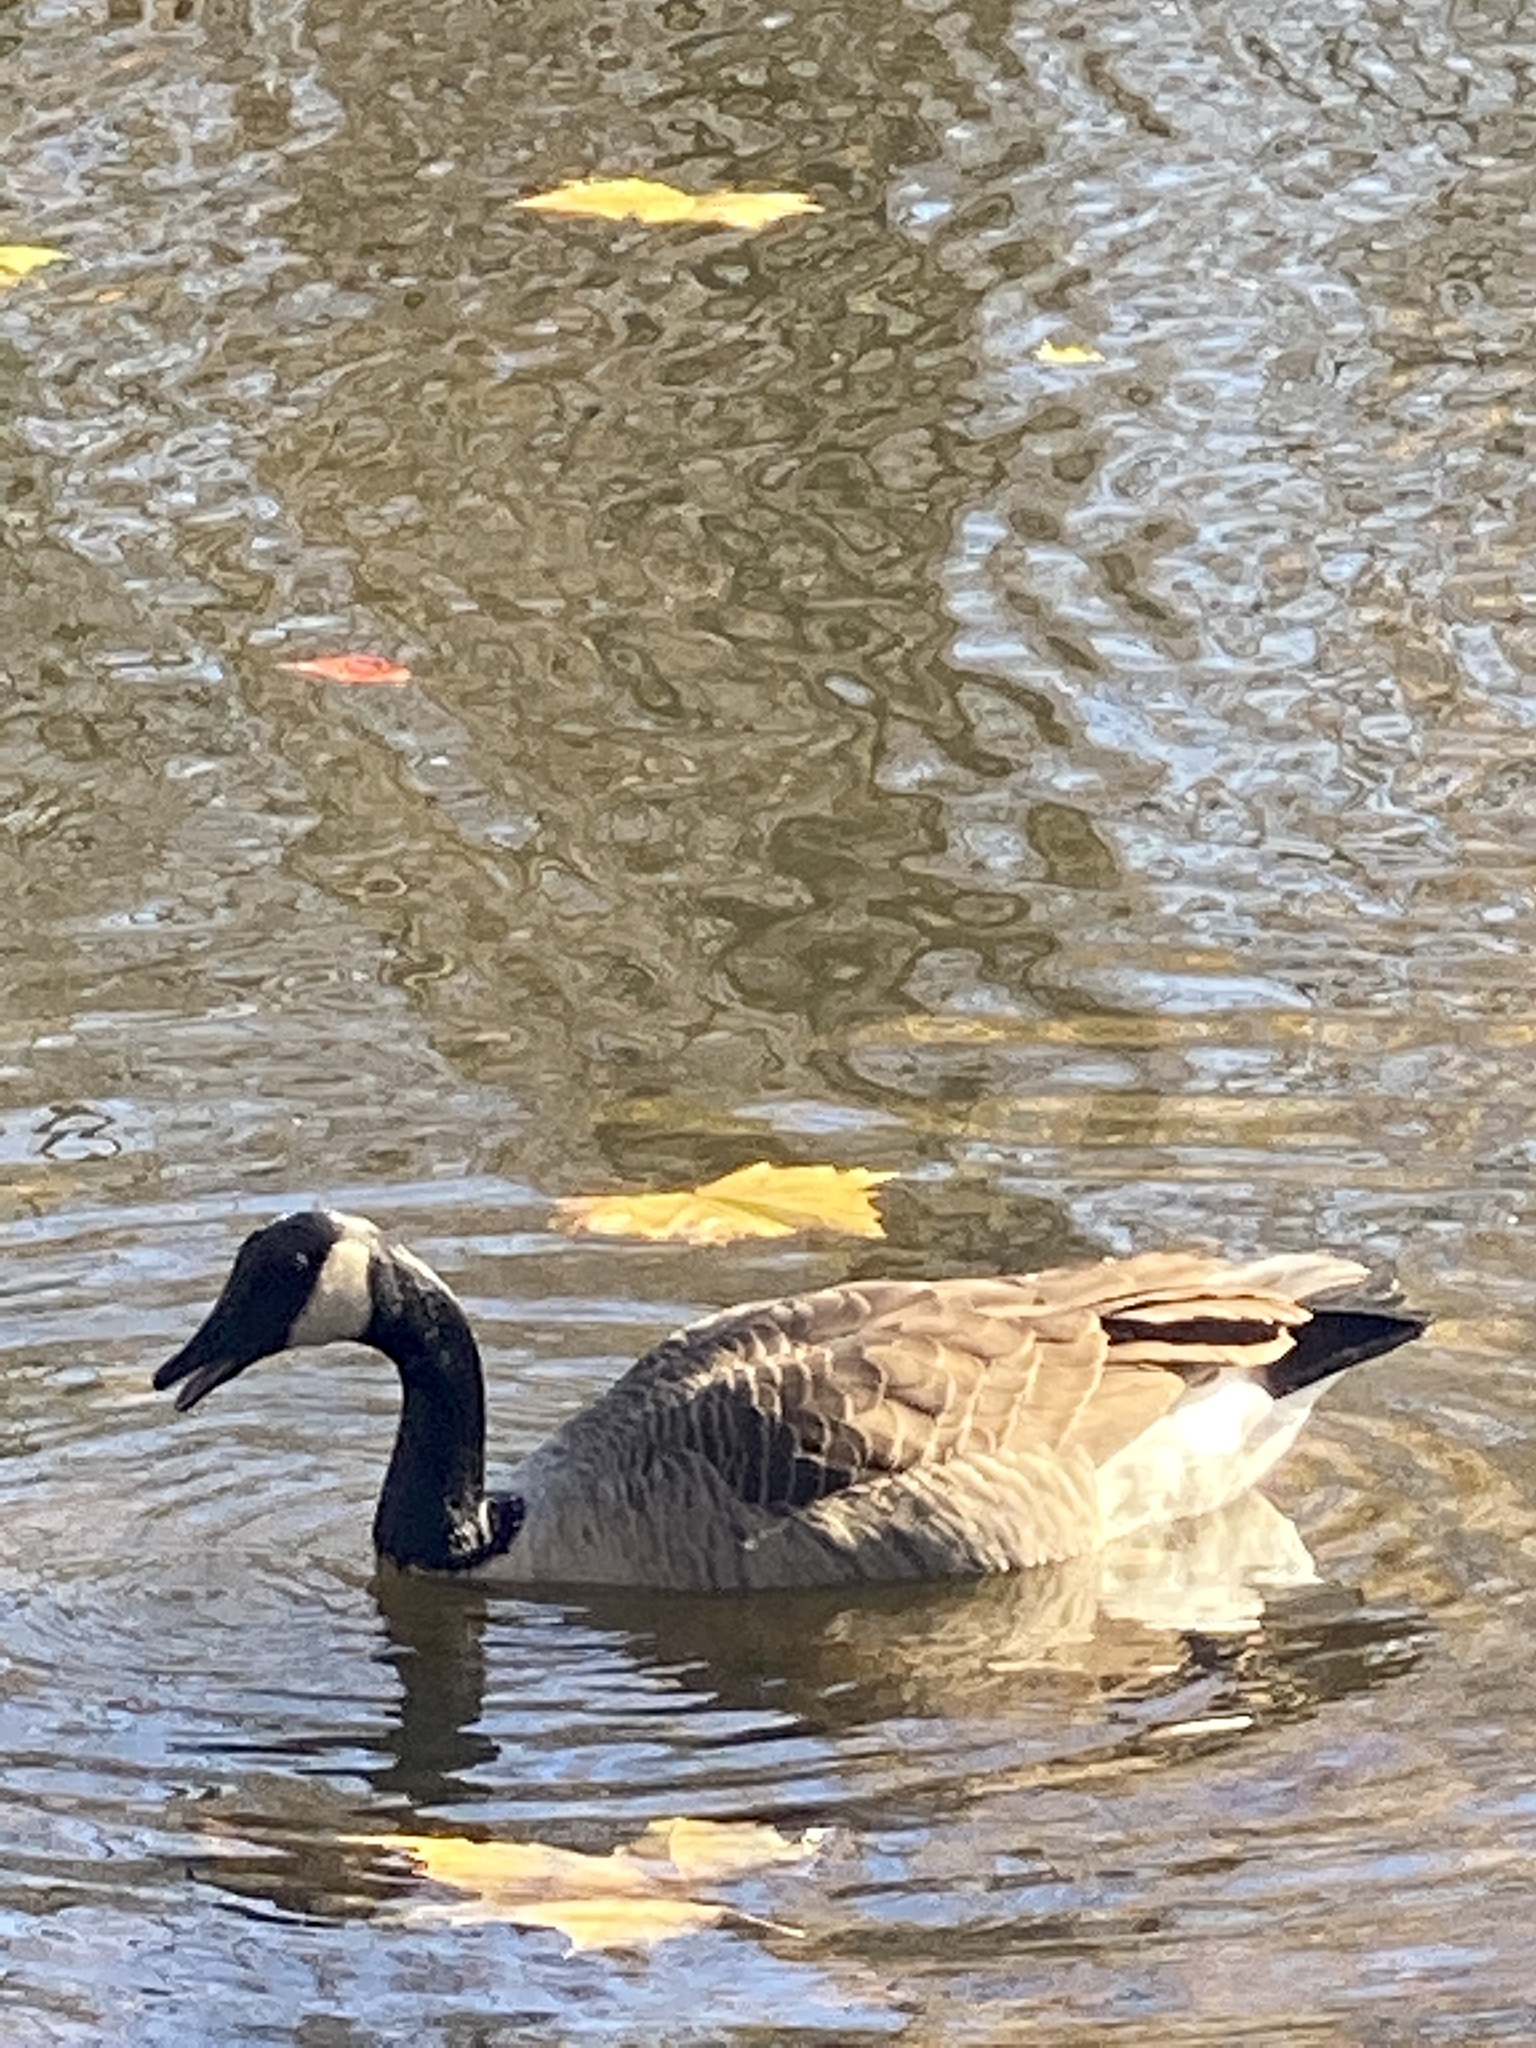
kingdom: Animalia
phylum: Chordata
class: Aves
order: Anseriformes
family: Anatidae
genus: Branta
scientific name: Branta canadensis
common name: Canada goose
